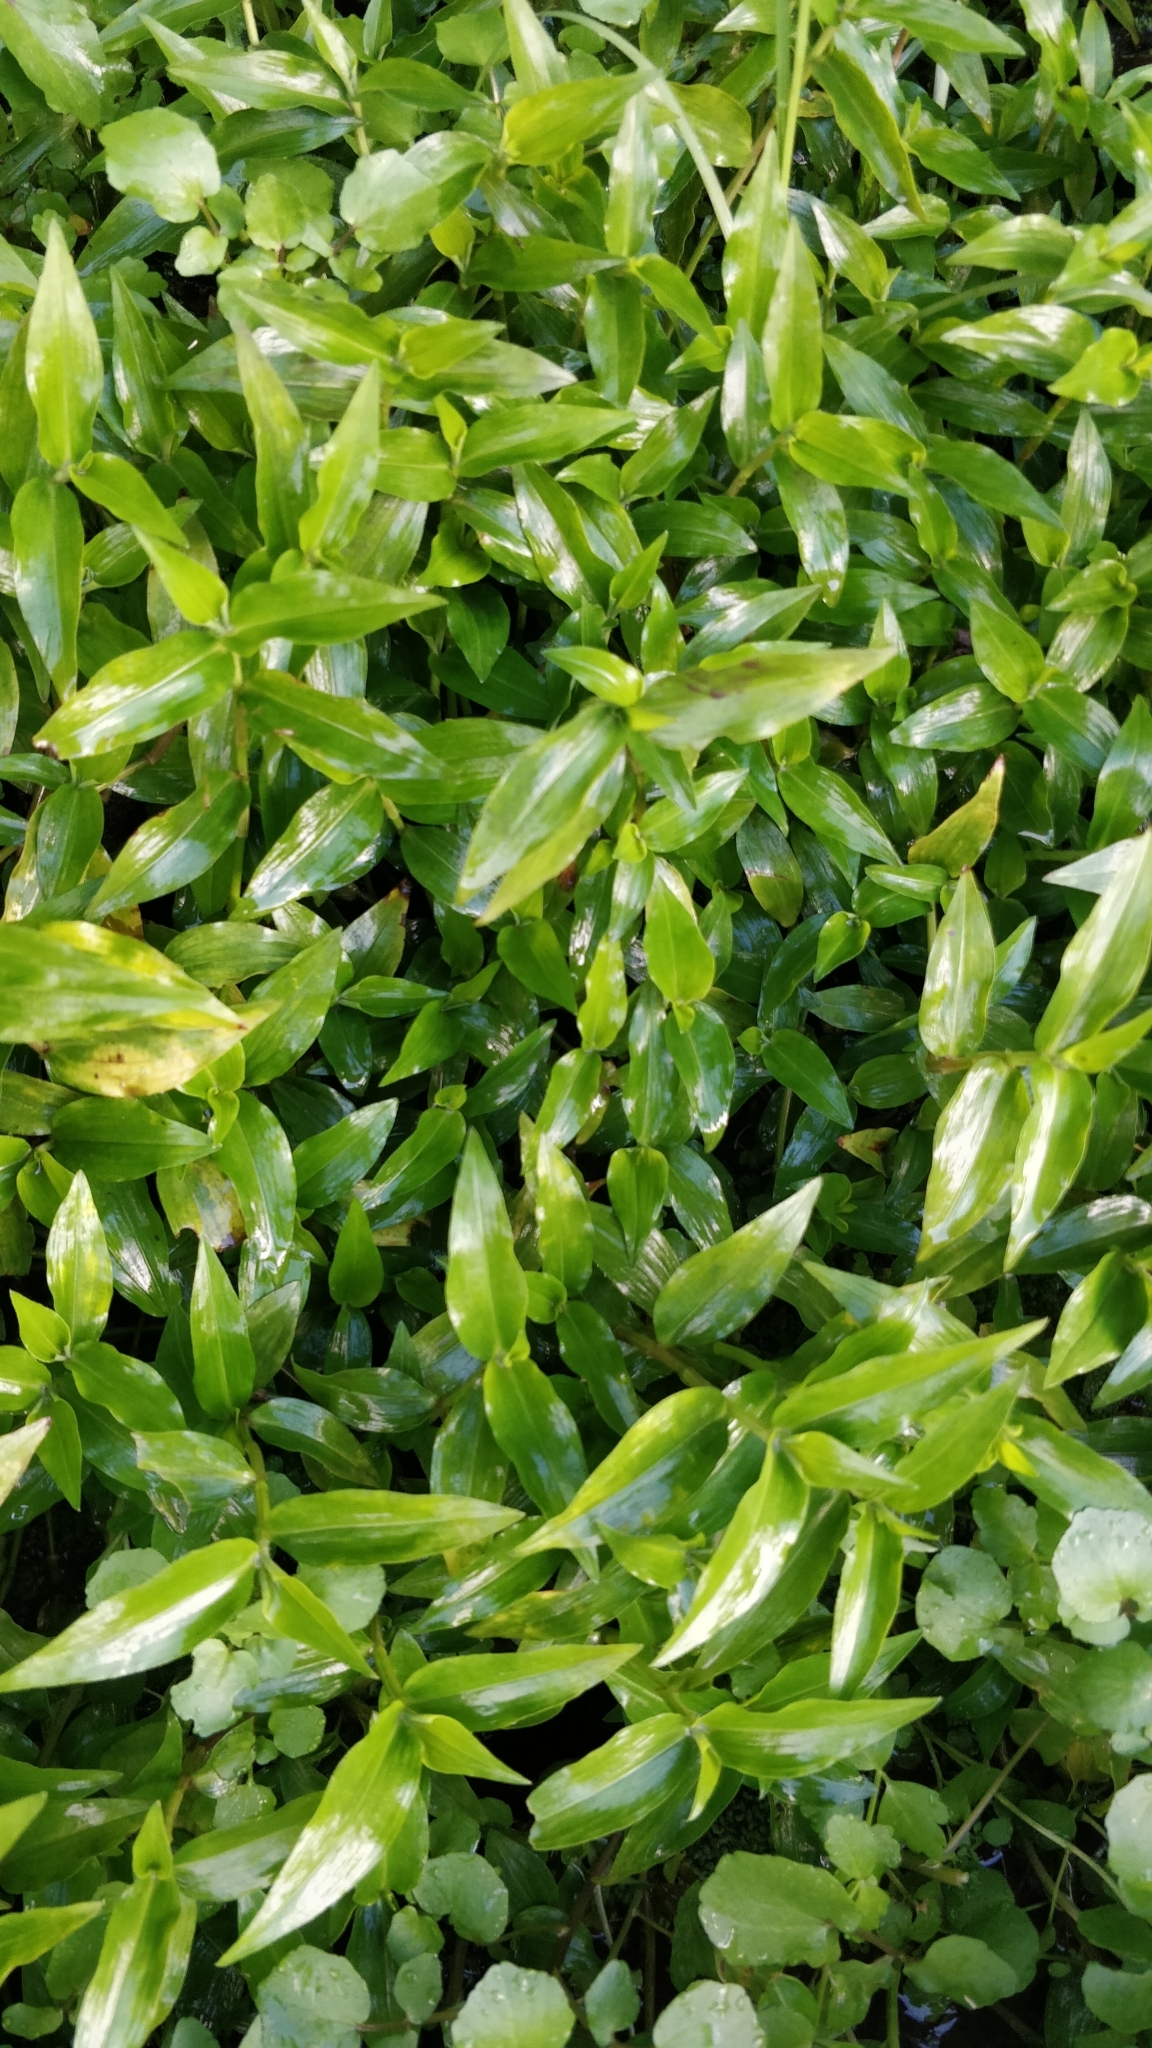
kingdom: Plantae
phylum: Tracheophyta
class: Liliopsida
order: Commelinales
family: Commelinaceae
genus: Tradescantia
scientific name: Tradescantia fluminensis
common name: Wandering-jew
